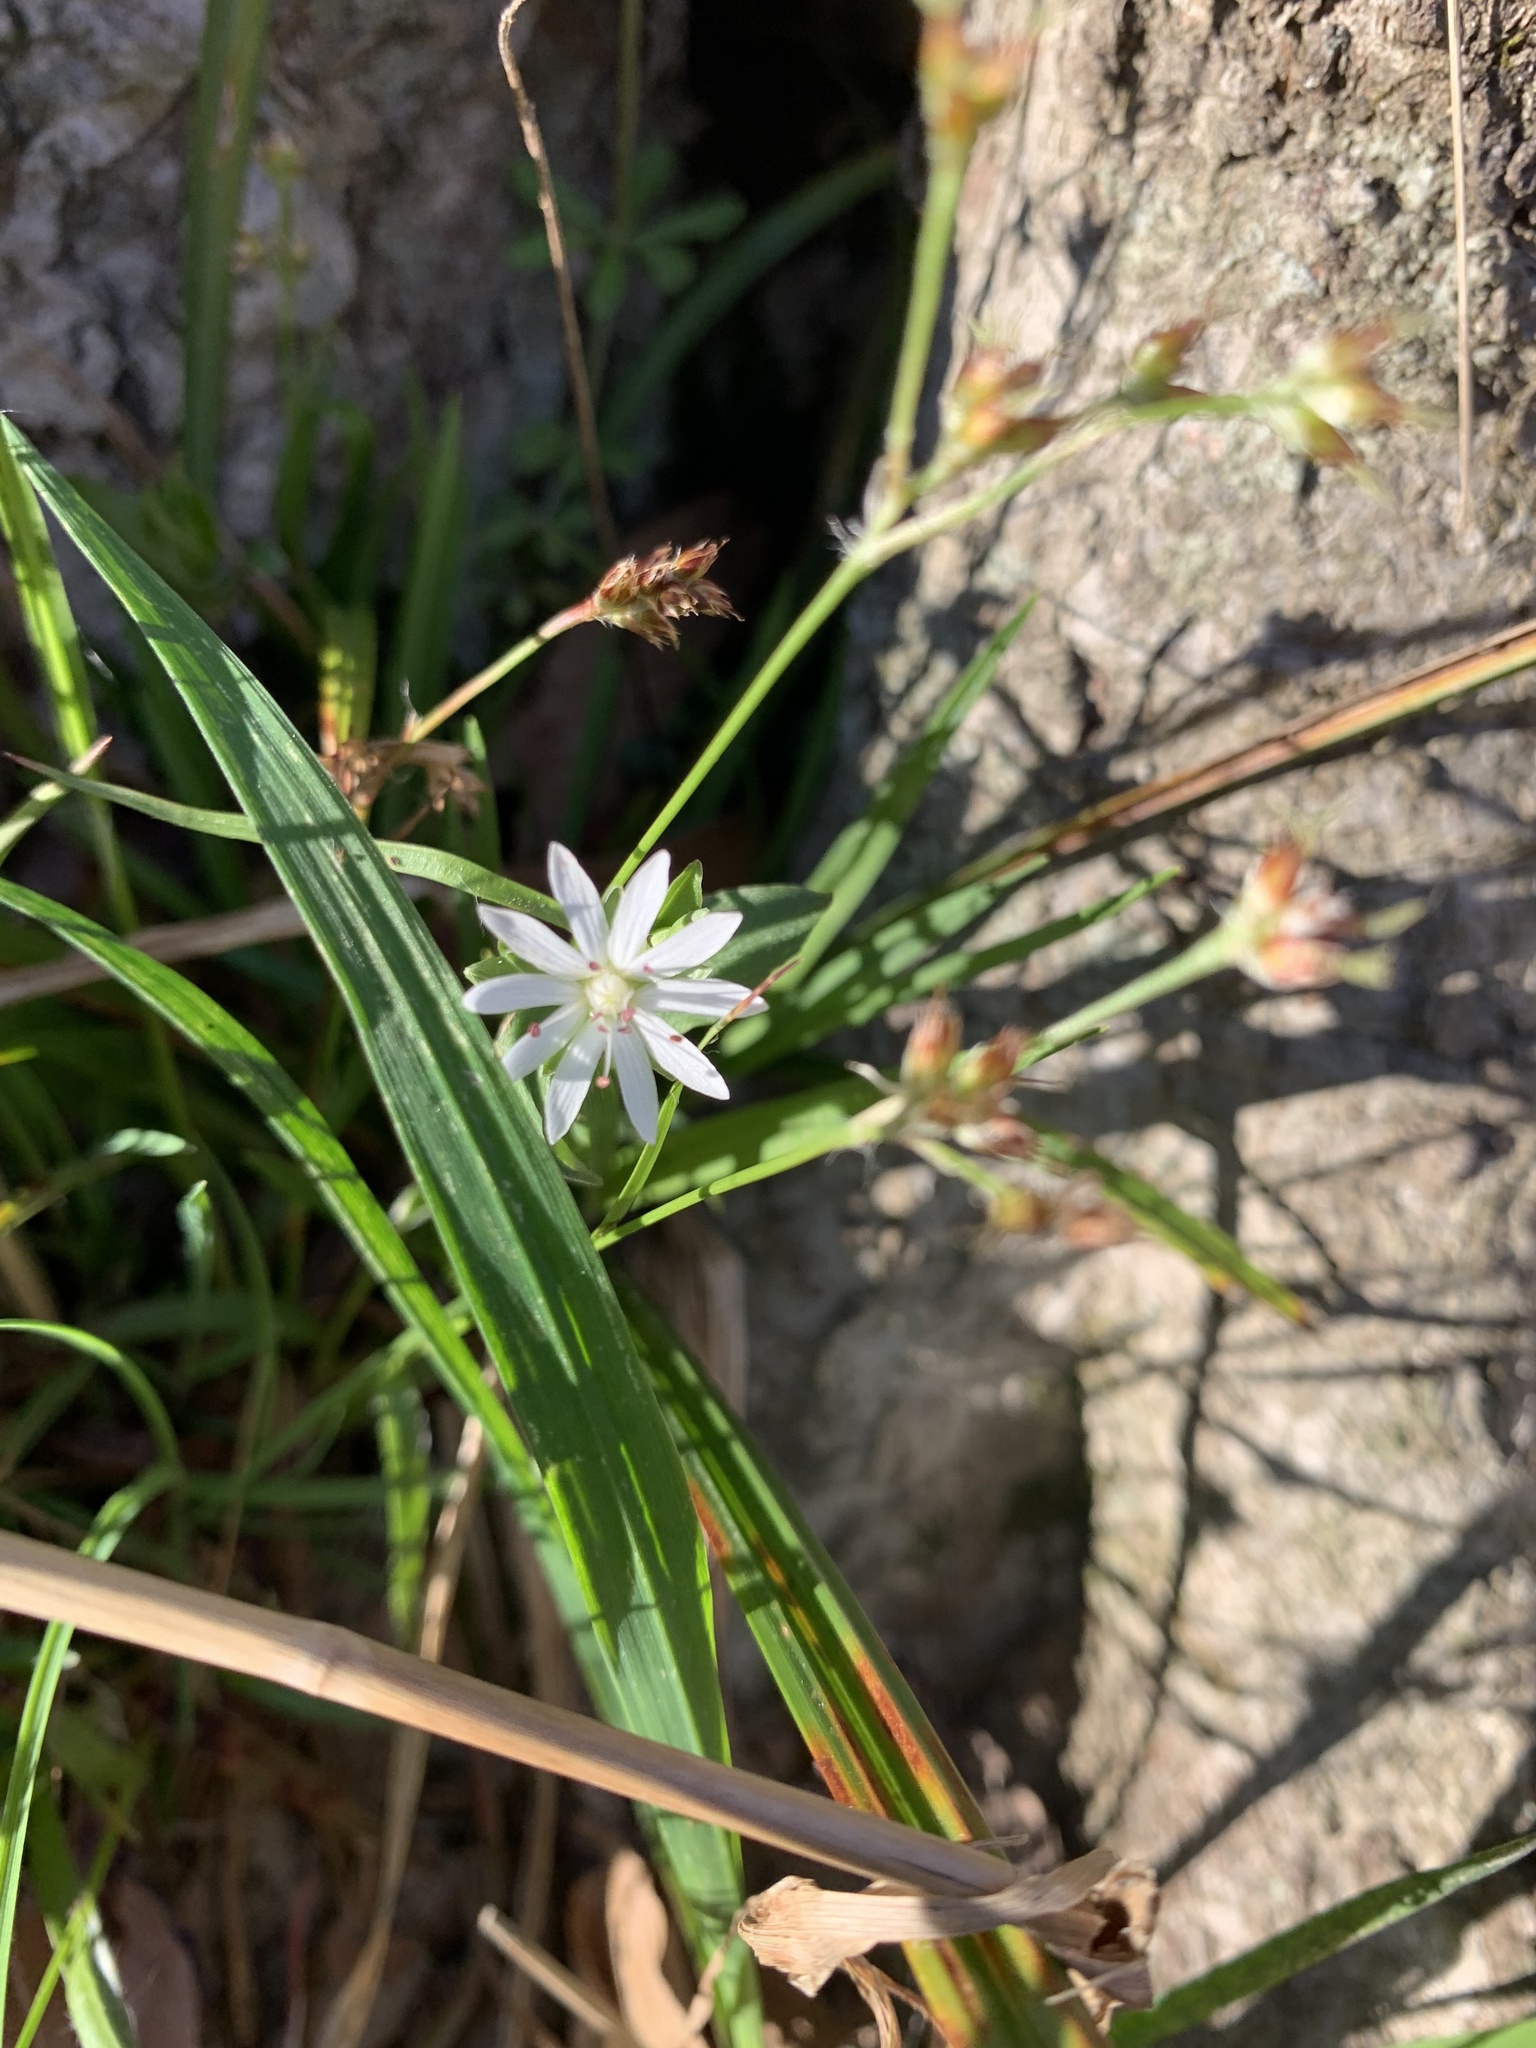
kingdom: Plantae
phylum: Tracheophyta
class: Magnoliopsida
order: Caryophyllales
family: Caryophyllaceae
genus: Stellaria
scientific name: Stellaria pubera
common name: Star chickweed
